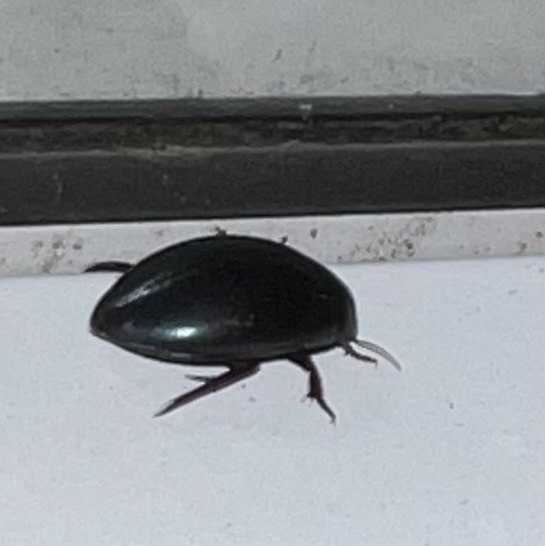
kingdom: Animalia
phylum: Arthropoda
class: Insecta
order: Coleoptera
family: Dytiscidae
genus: Ilybius
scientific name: Ilybius
